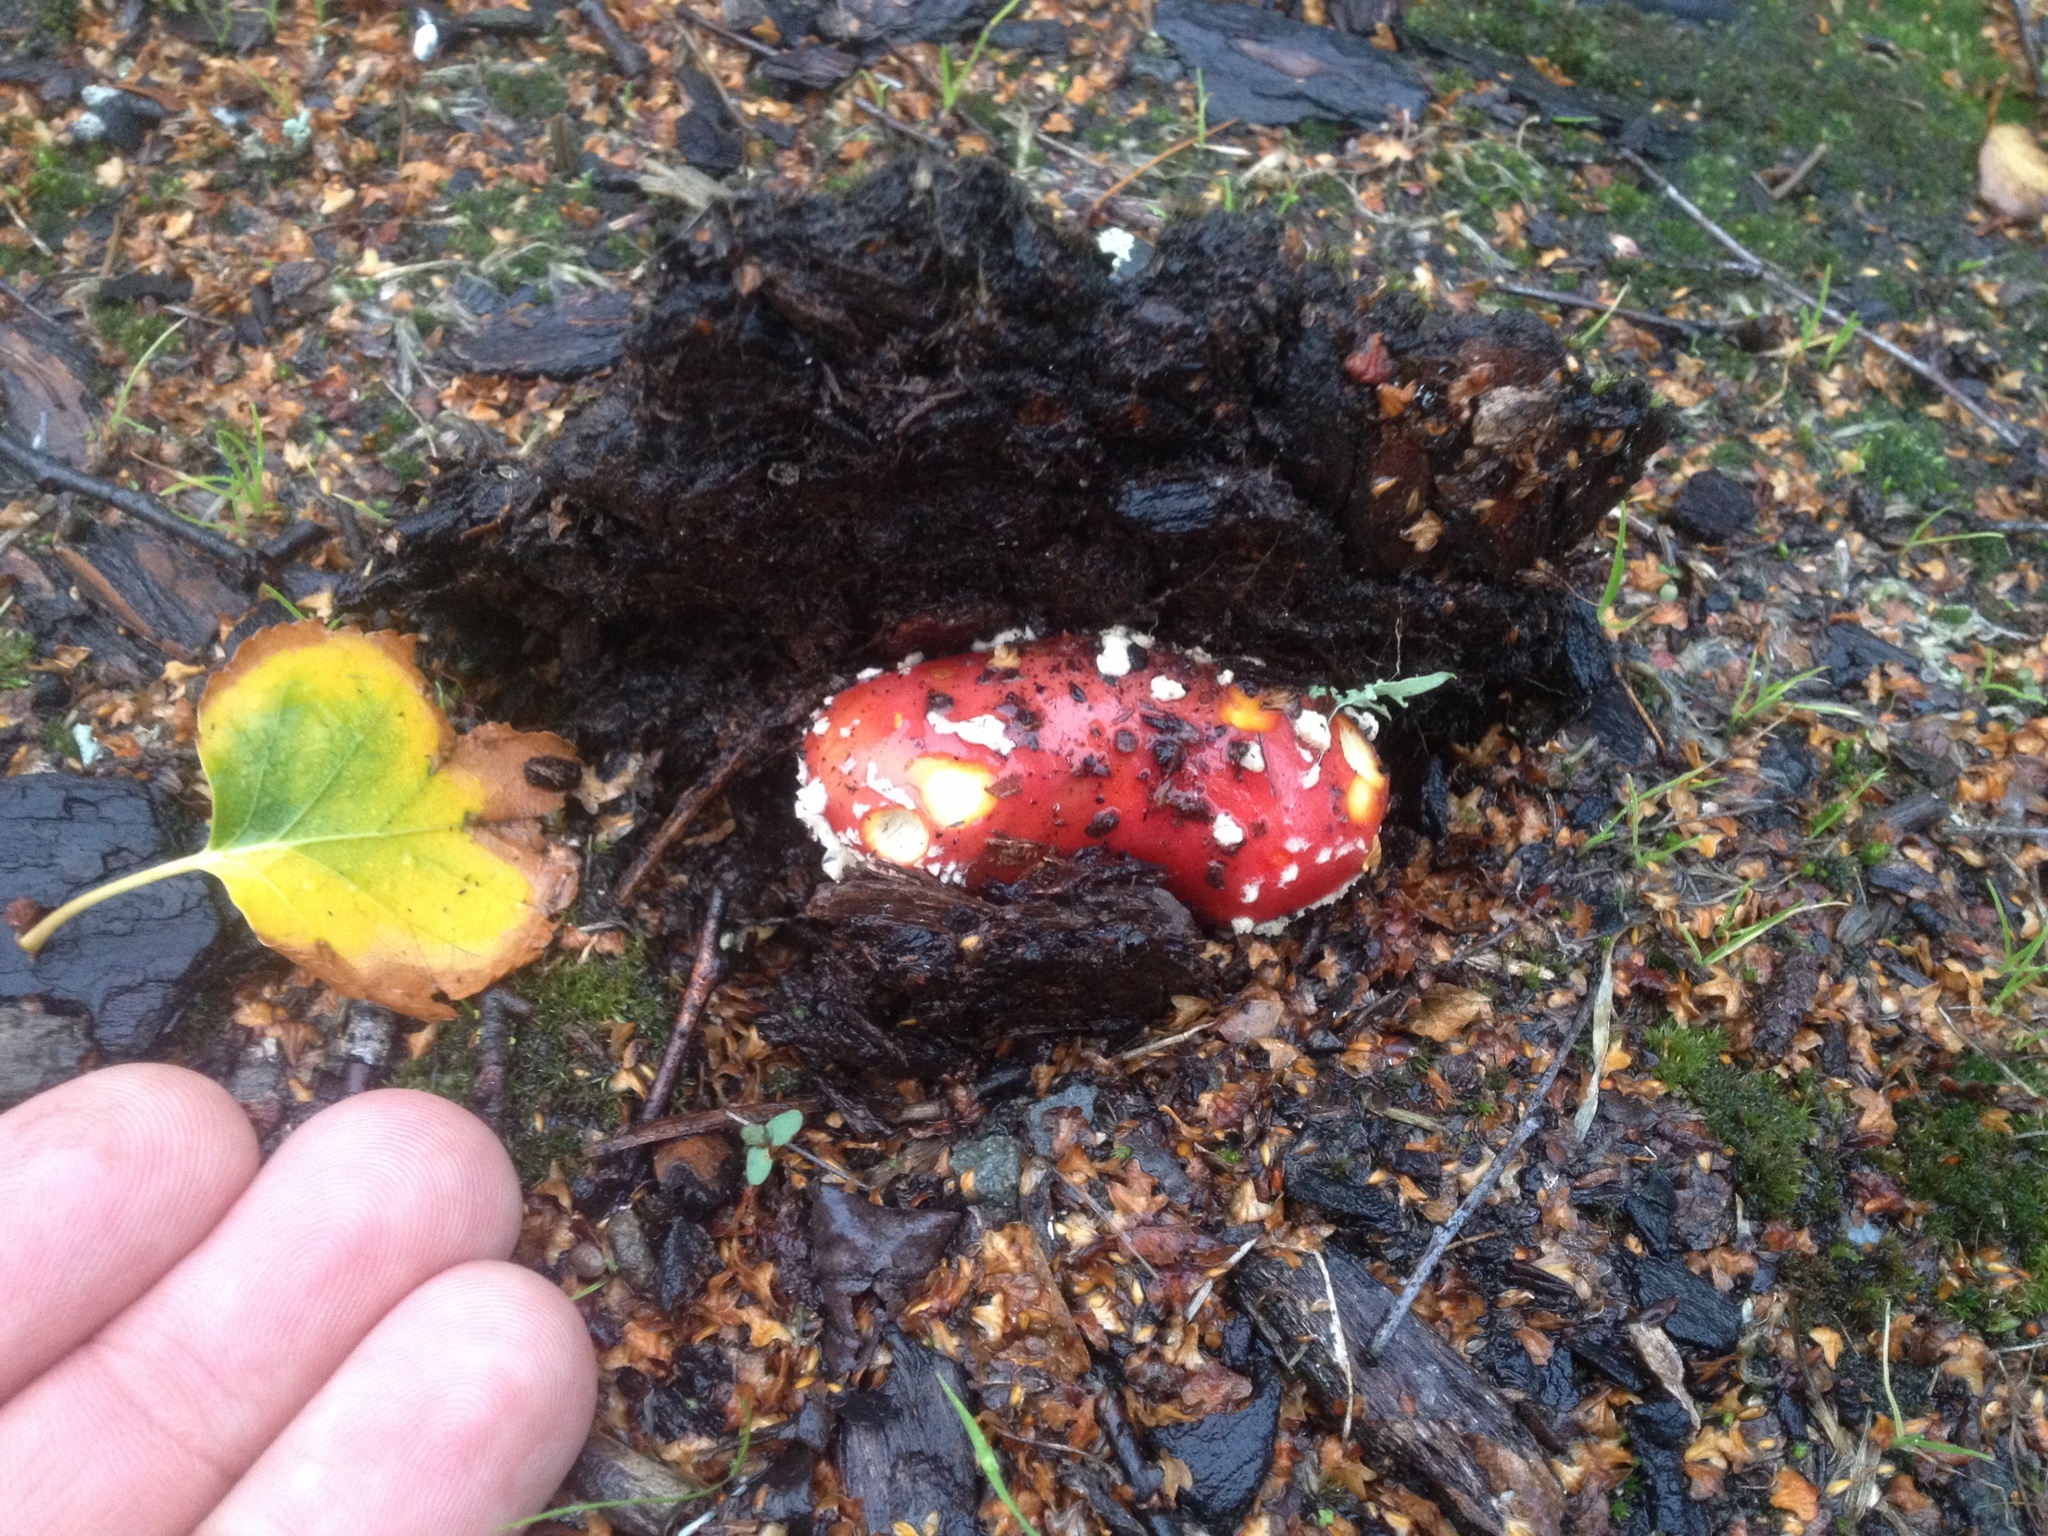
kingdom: Fungi
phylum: Basidiomycota
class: Agaricomycetes
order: Agaricales
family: Amanitaceae
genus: Amanita
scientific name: Amanita muscaria
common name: Fly agaric
